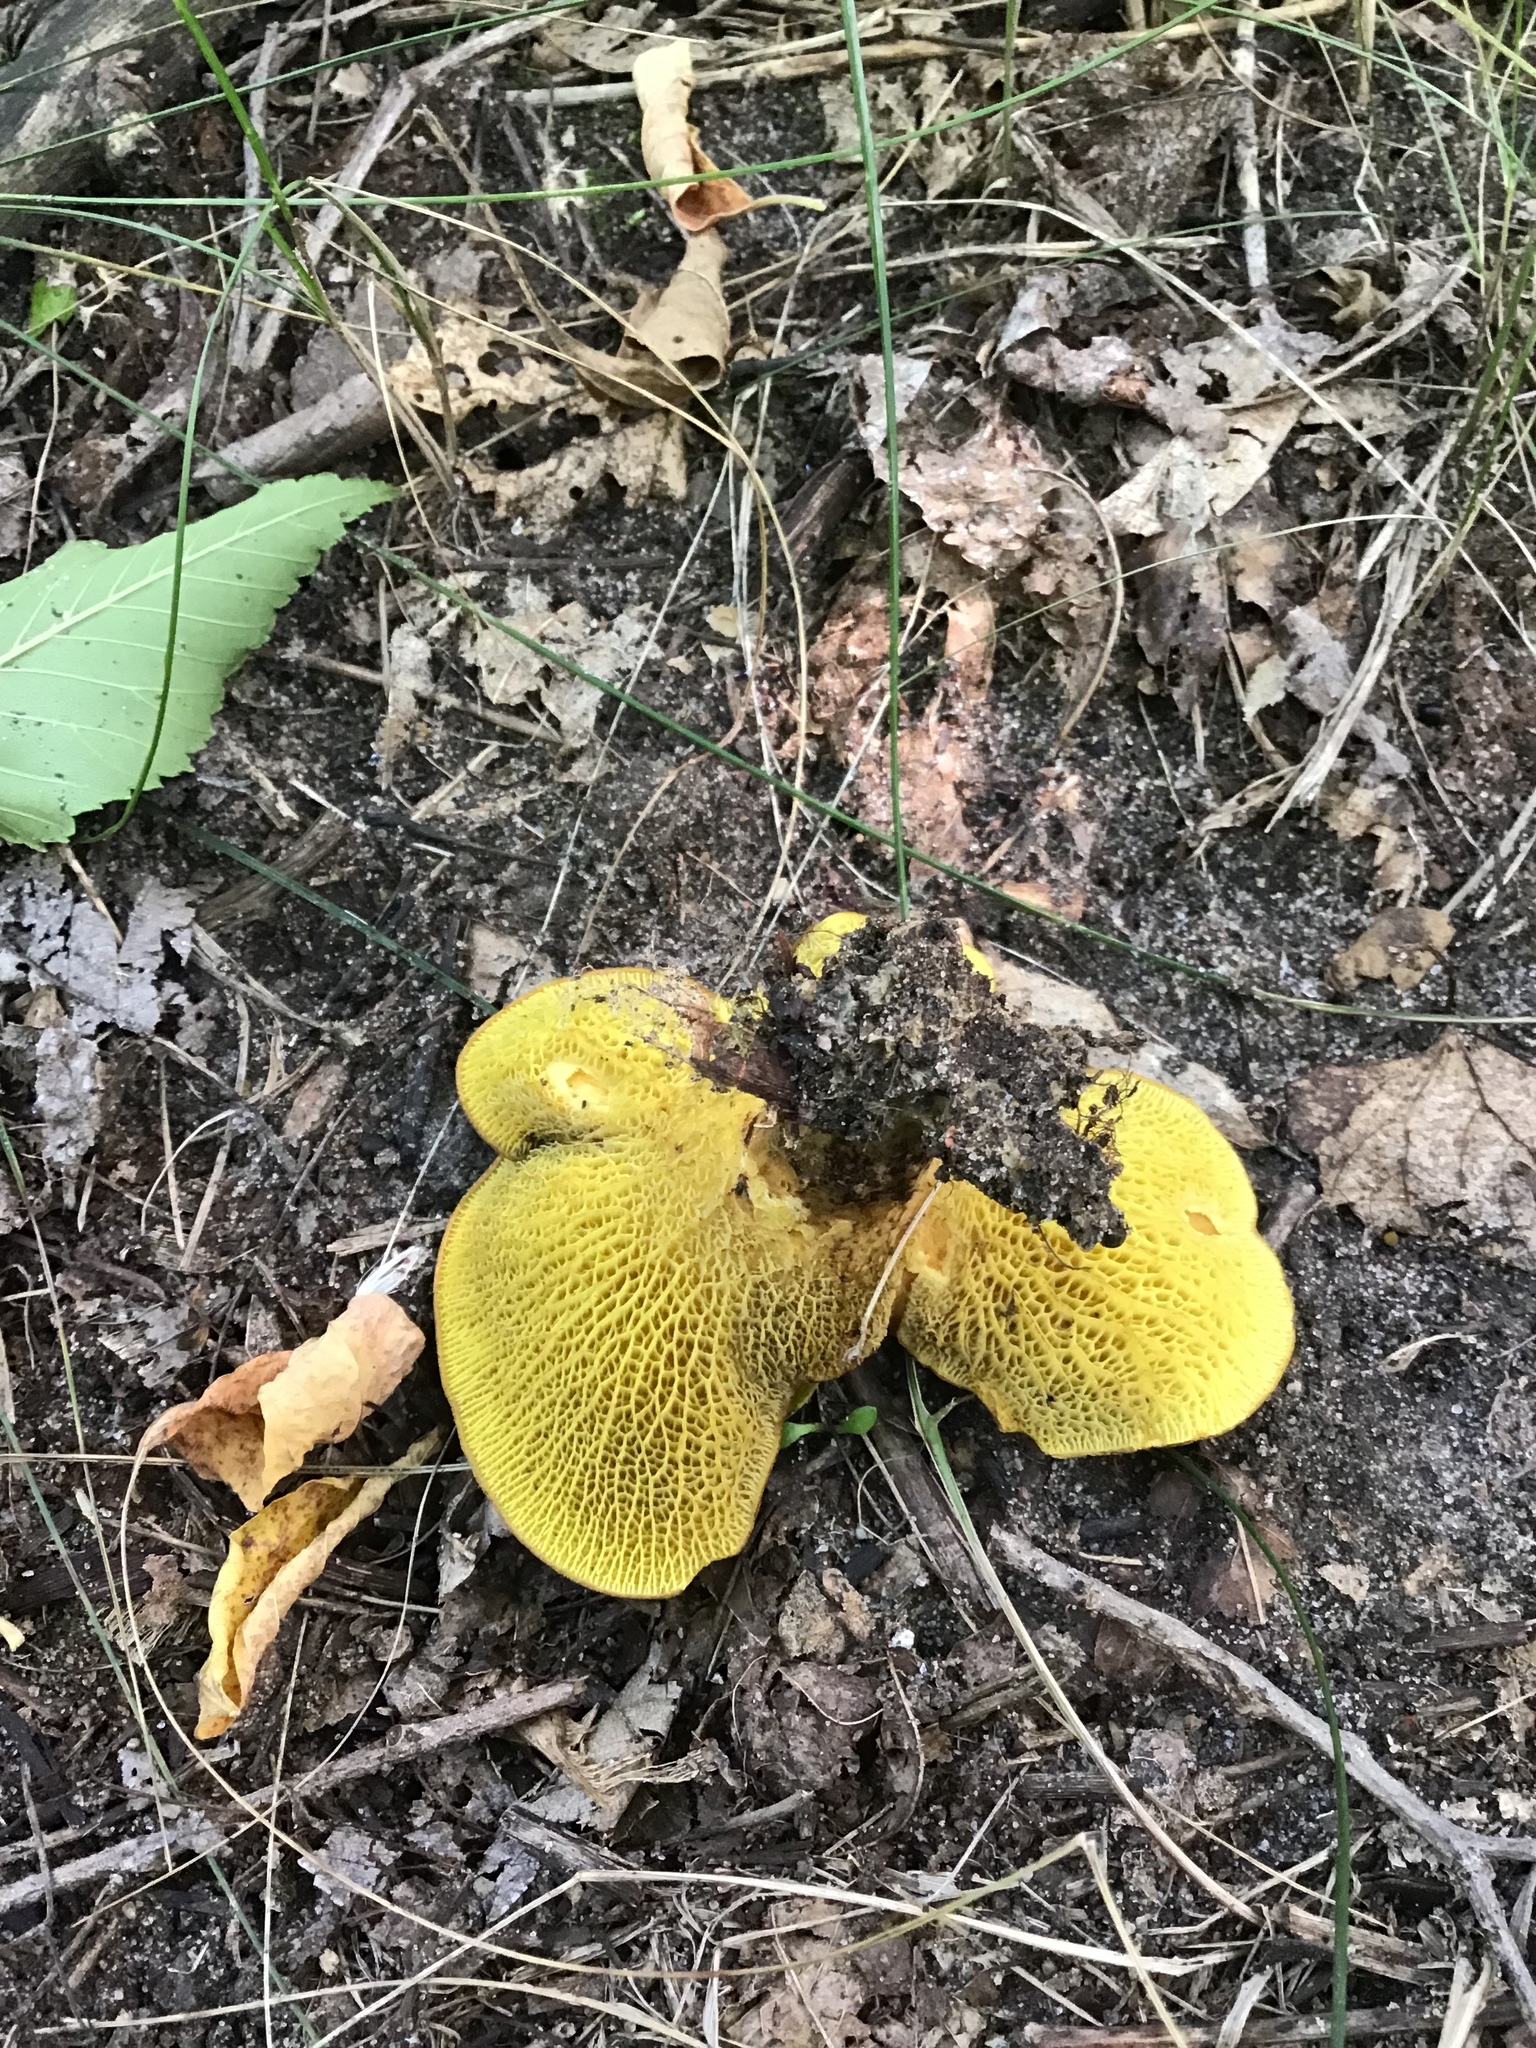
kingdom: Fungi
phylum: Basidiomycota
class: Agaricomycetes
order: Boletales
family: Boletinellaceae
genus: Boletinellus
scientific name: Boletinellus merulioides
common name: Ash tree bolete
